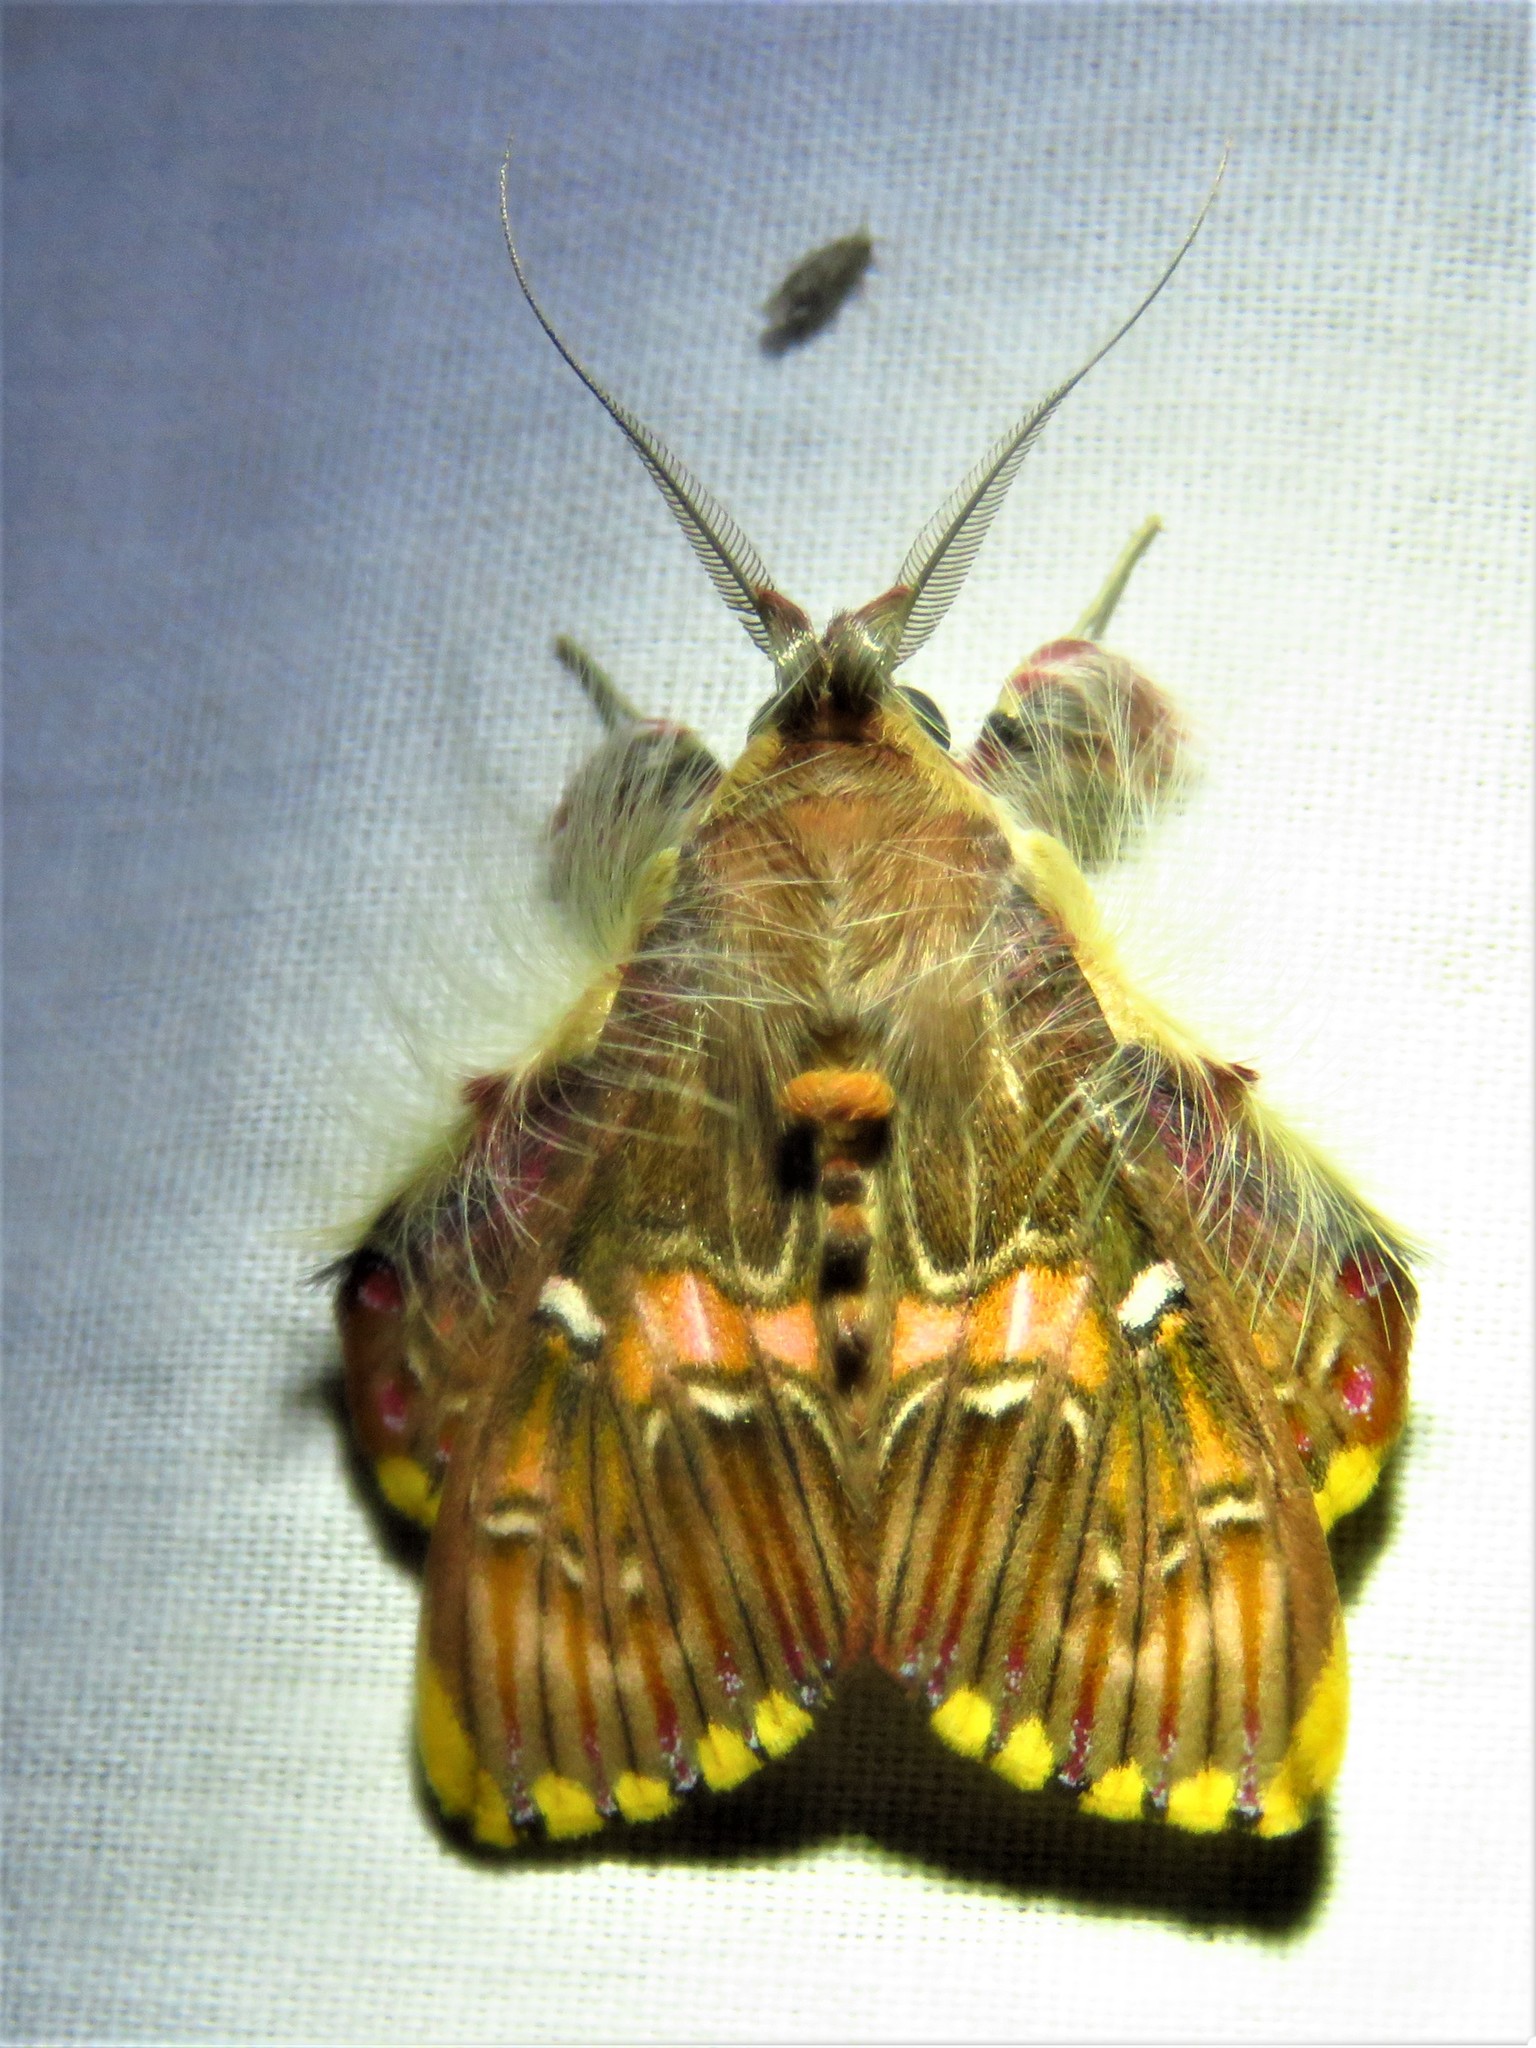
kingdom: Animalia
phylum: Arthropoda
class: Insecta
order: Lepidoptera
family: Erebidae
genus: Sosxetra
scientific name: Sosxetra grata
